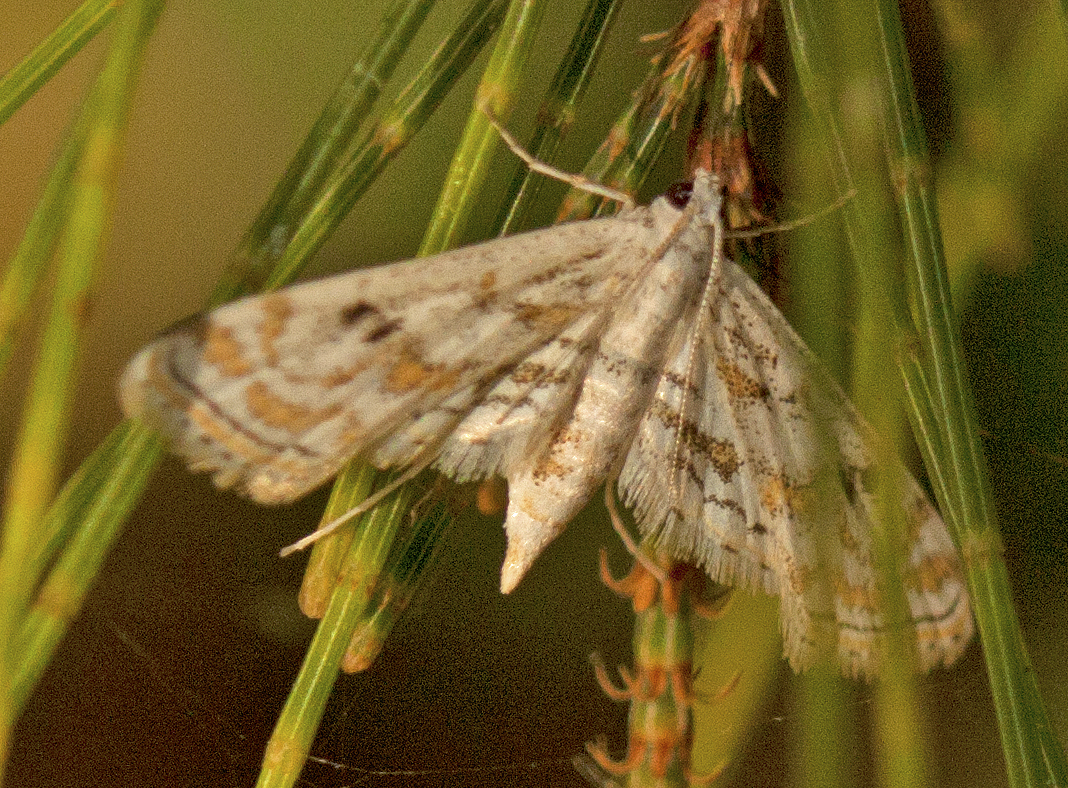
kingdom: Animalia
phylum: Arthropoda
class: Insecta
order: Lepidoptera
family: Crambidae
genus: Parapoynx
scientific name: Parapoynx diminutalis
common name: Hydrilla leafcutter
